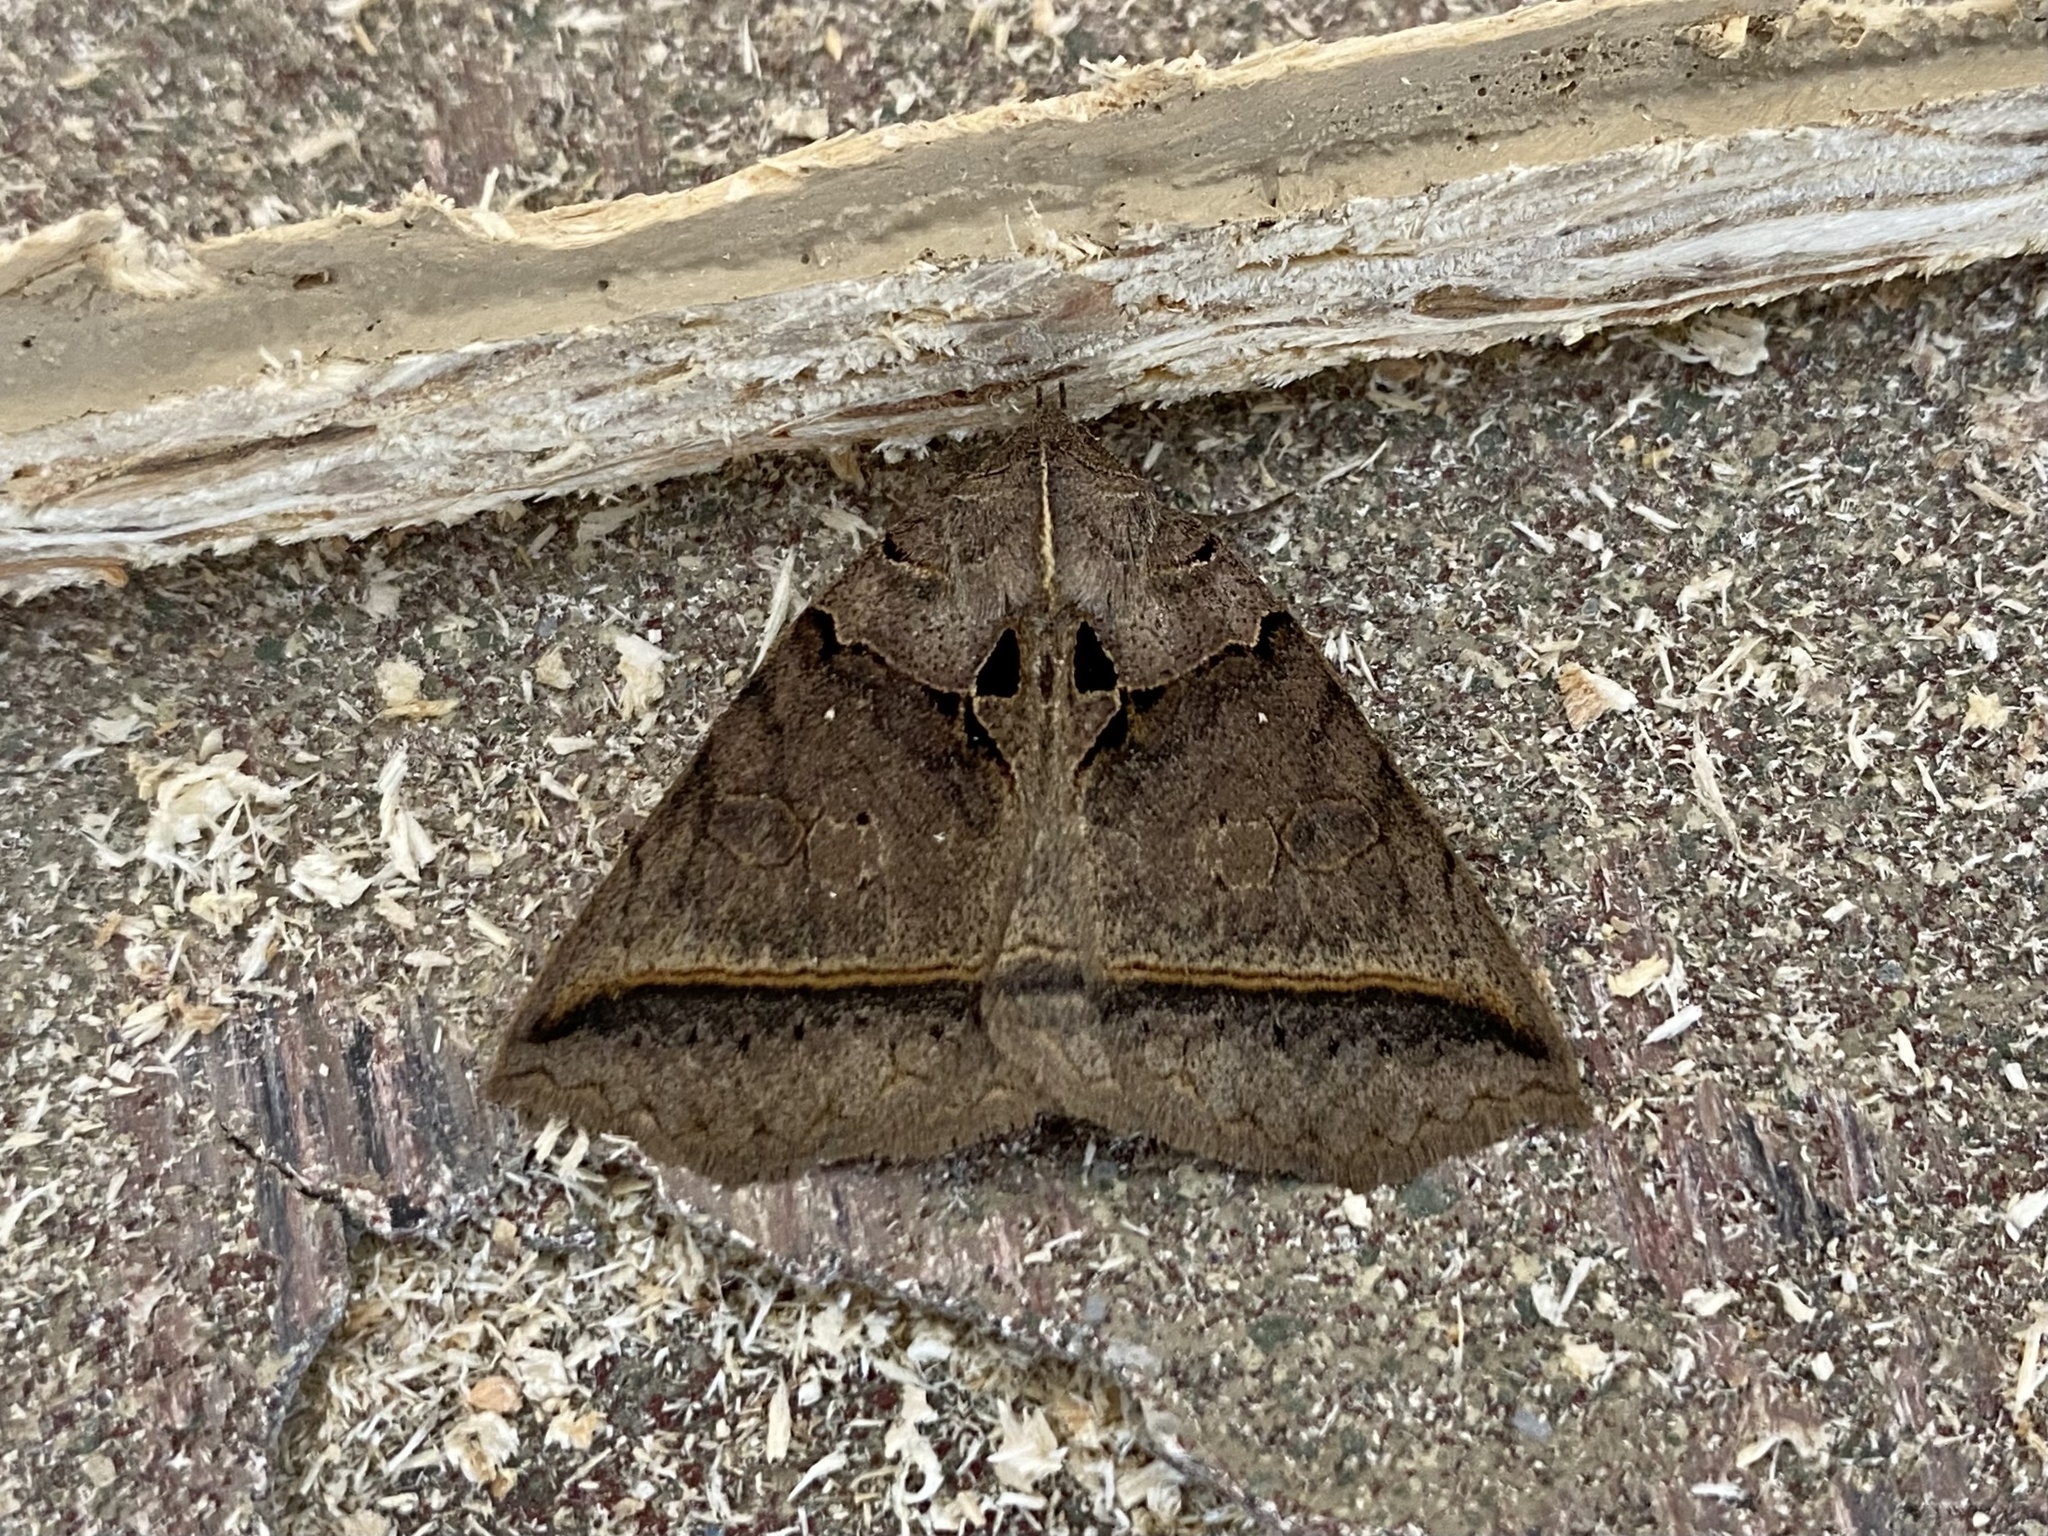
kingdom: Animalia
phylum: Arthropoda
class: Insecta
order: Lepidoptera
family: Erebidae
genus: Celiptera
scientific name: Celiptera frustulum
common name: Black bit moth
